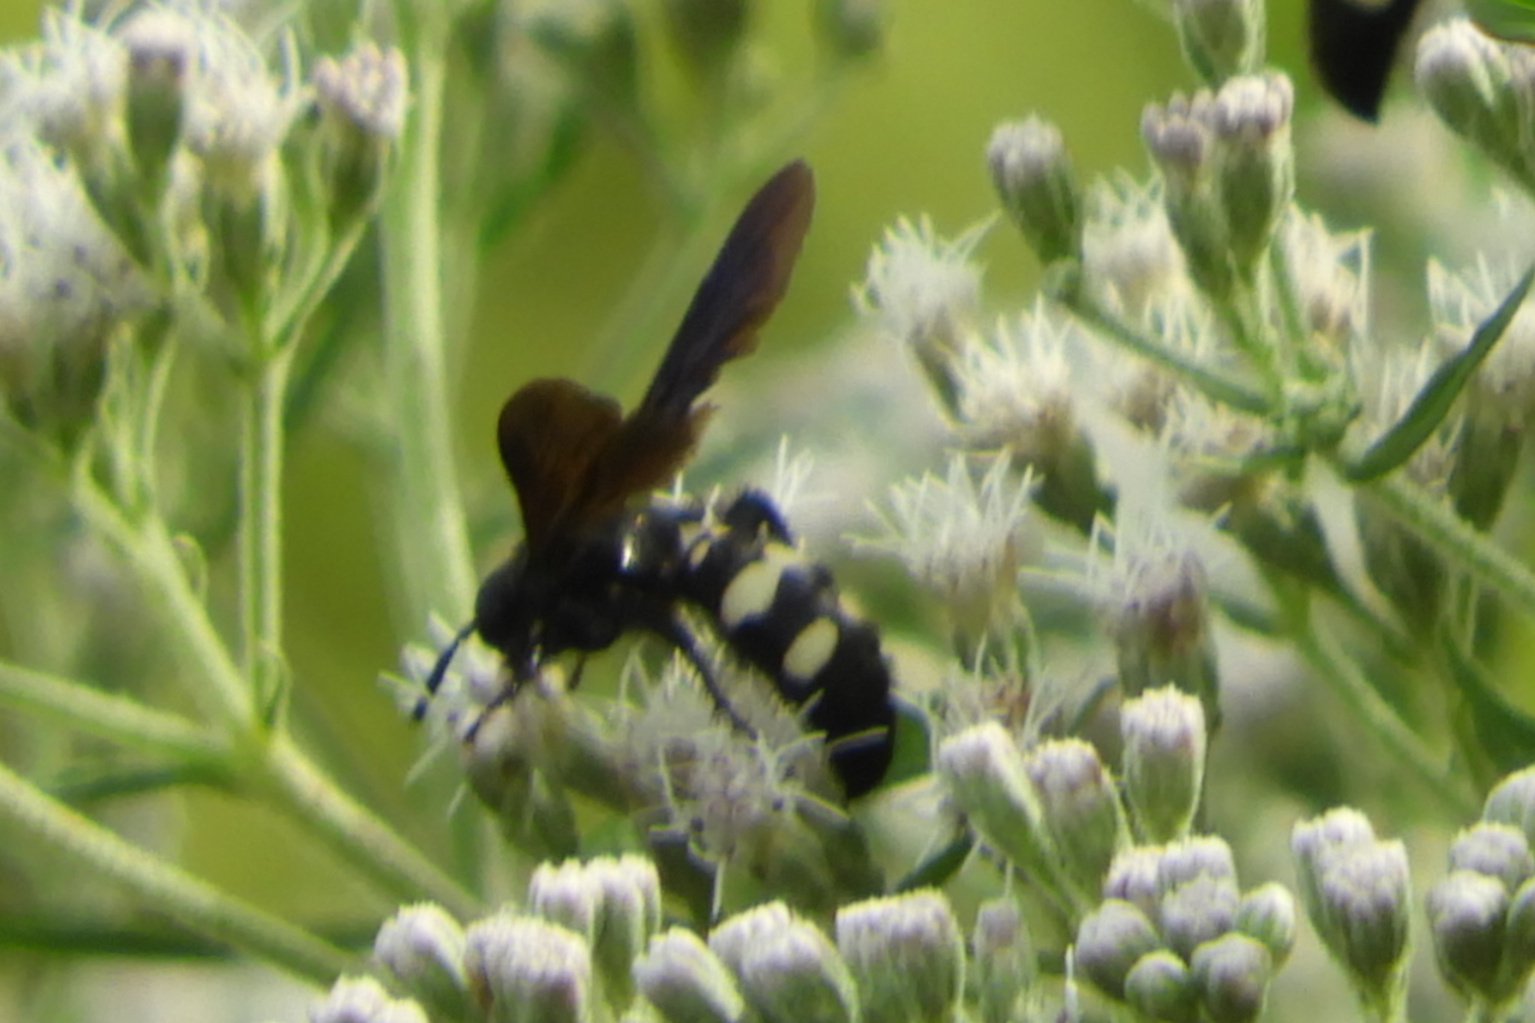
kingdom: Animalia
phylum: Arthropoda
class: Insecta
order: Hymenoptera
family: Scoliidae
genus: Scolia
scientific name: Scolia bicincta
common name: Double-banded scoliid wasp
